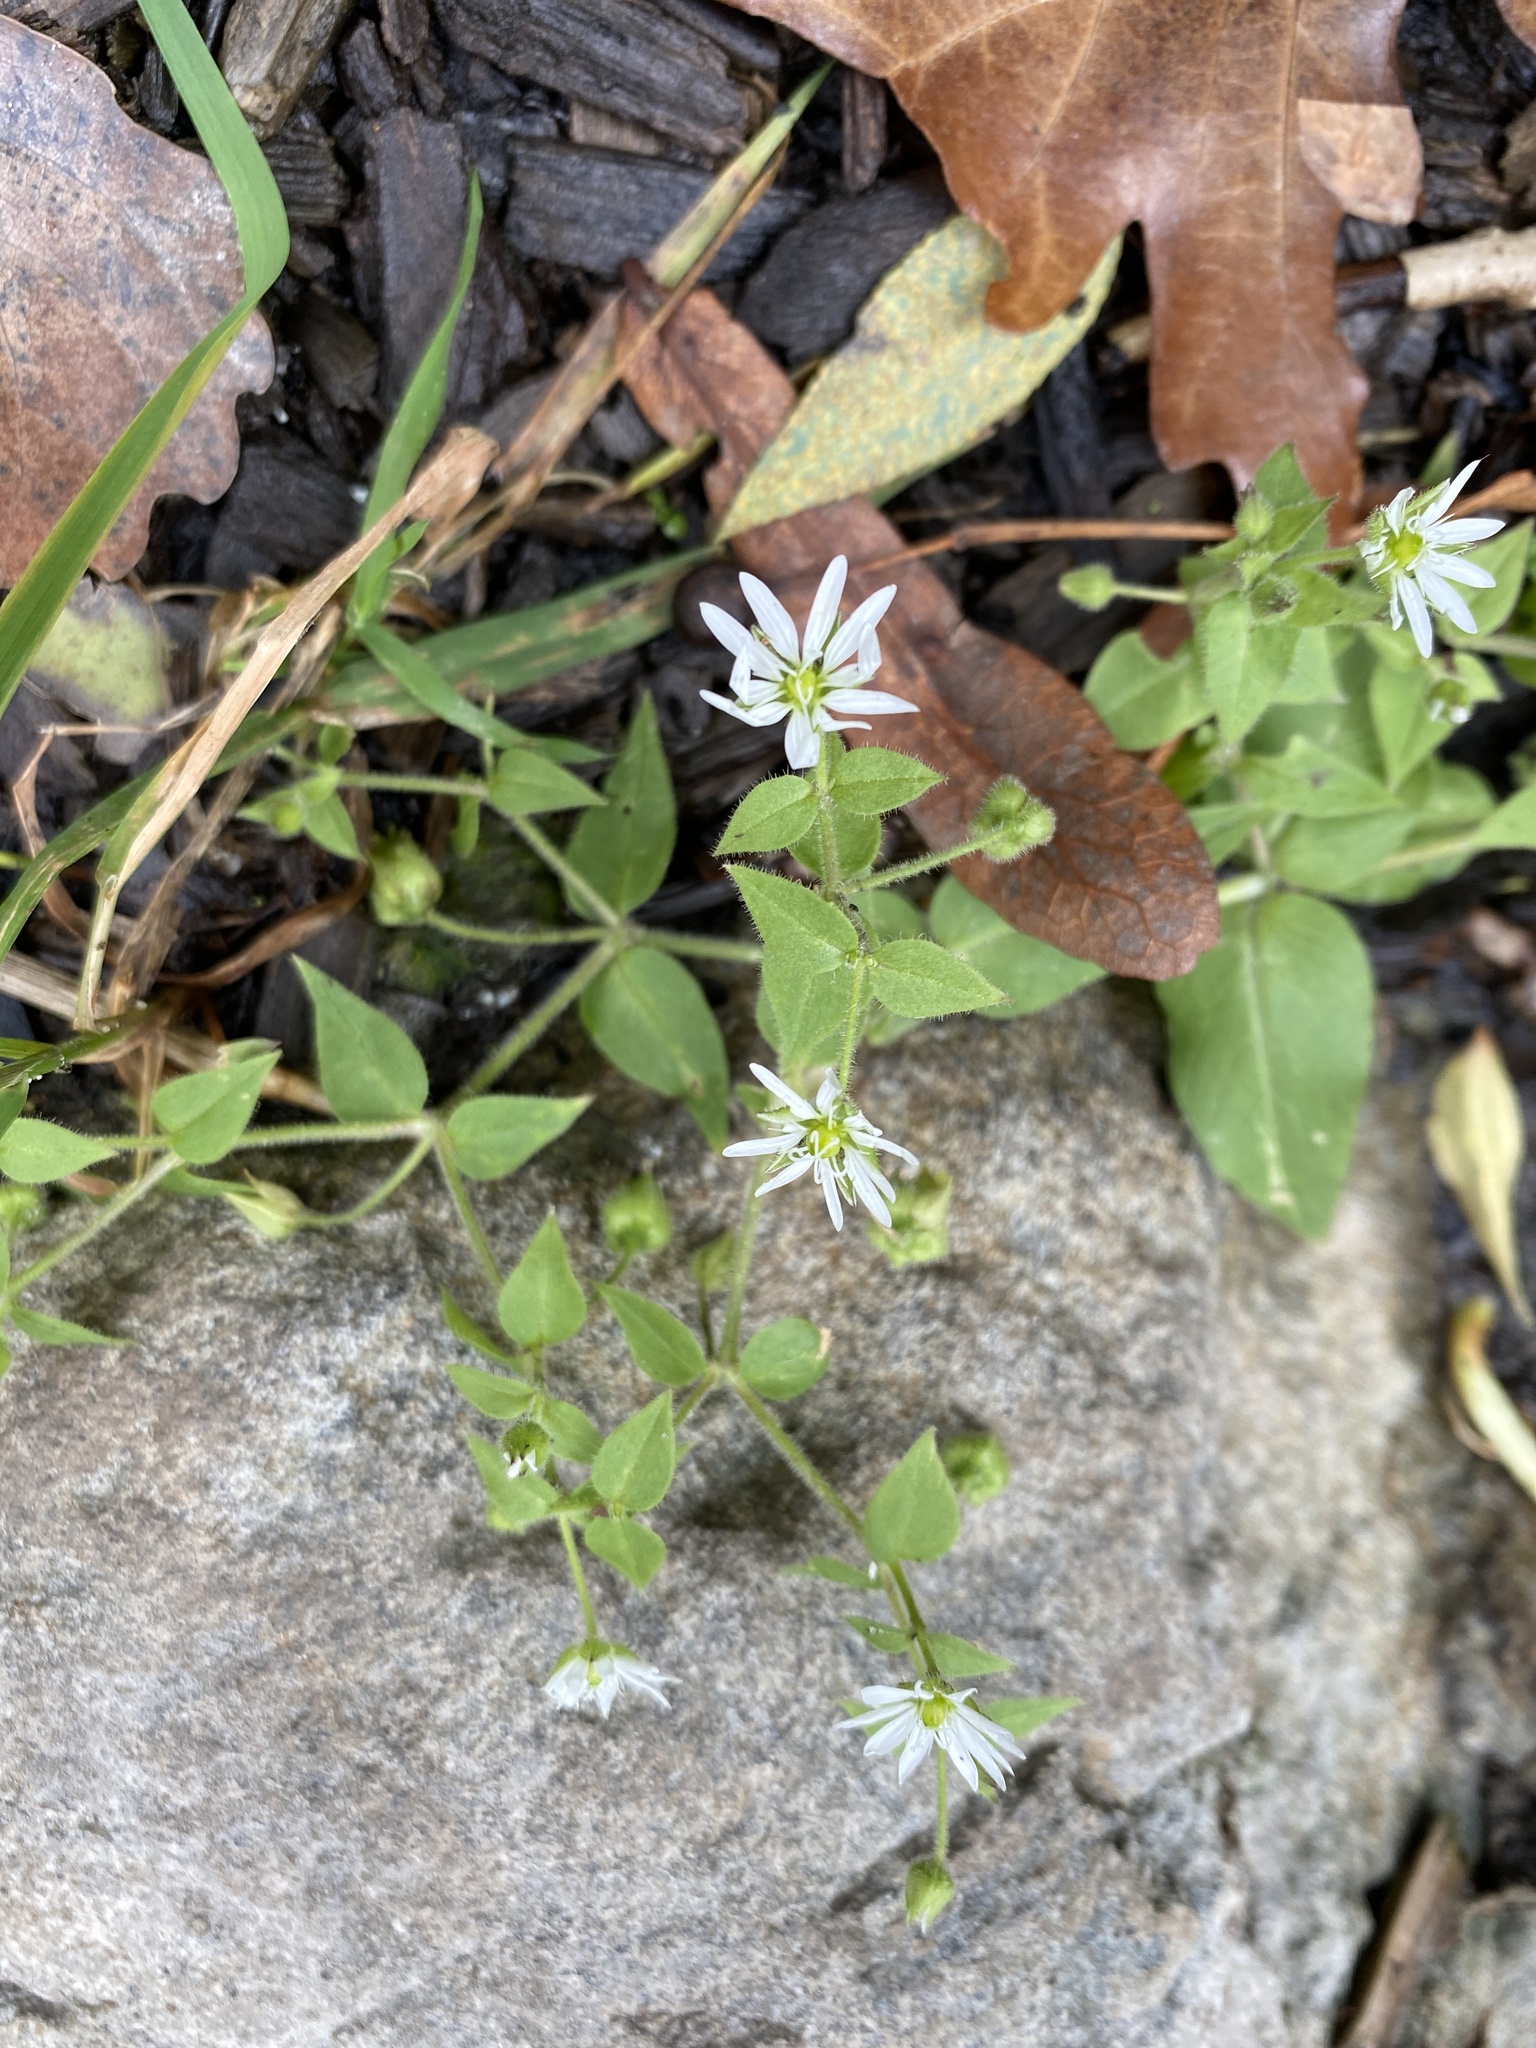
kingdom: Plantae
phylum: Tracheophyta
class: Magnoliopsida
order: Caryophyllales
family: Caryophyllaceae
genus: Stellaria
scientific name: Stellaria aquatica
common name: Water chickweed
